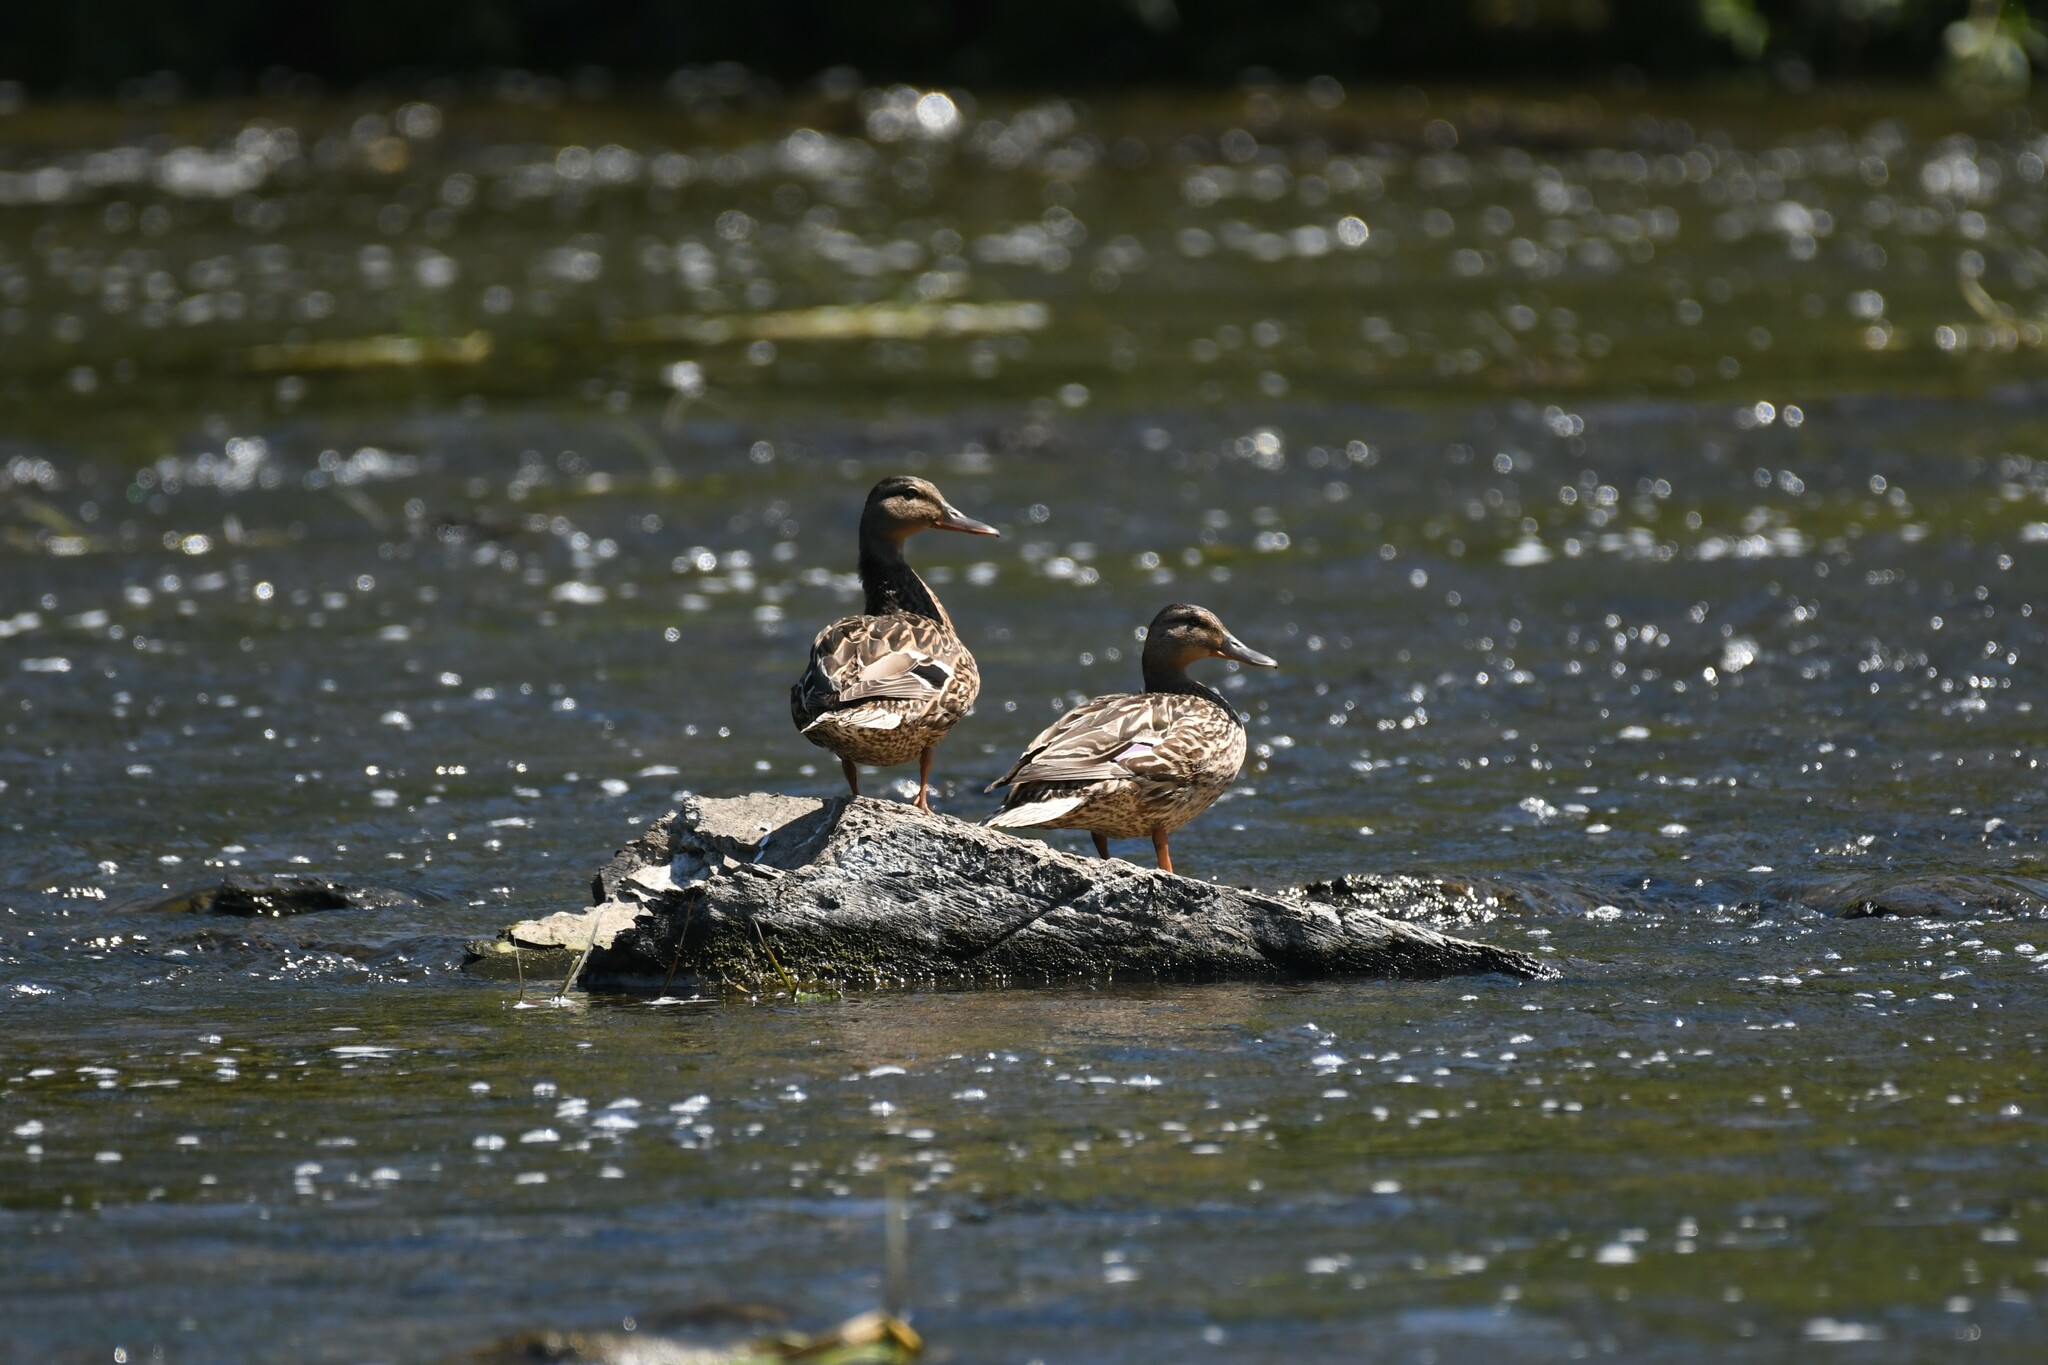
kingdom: Animalia
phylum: Chordata
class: Aves
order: Anseriformes
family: Anatidae
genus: Anas
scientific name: Anas platyrhynchos
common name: Mallard
